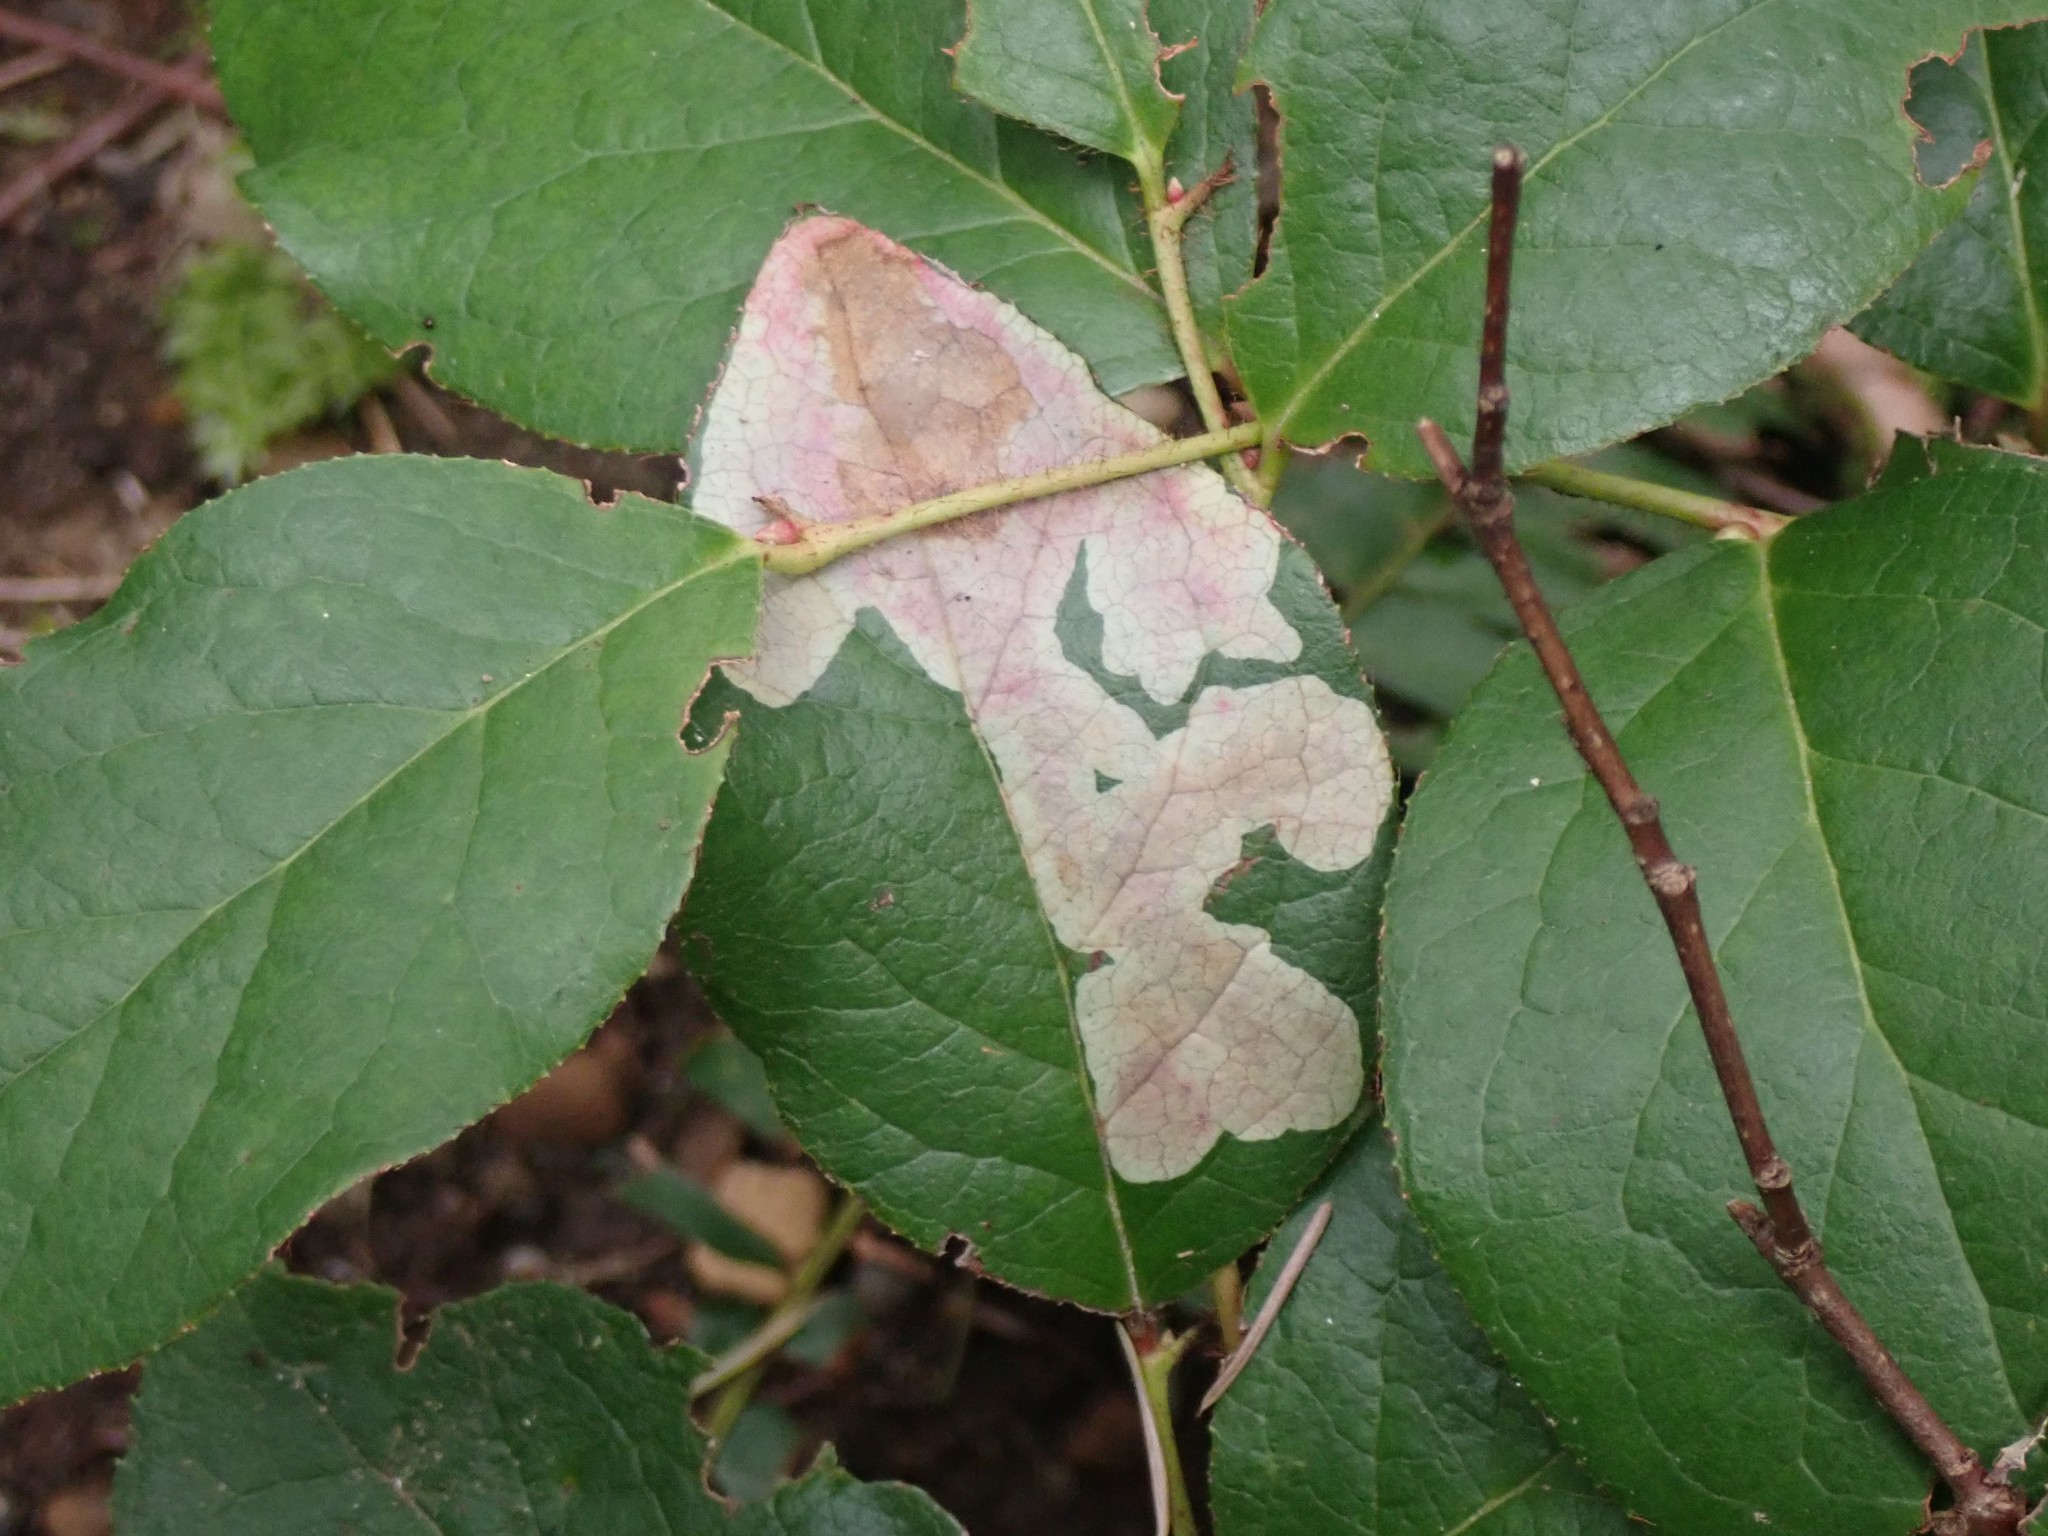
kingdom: Animalia
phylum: Arthropoda
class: Insecta
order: Lepidoptera
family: Gracillariidae
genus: Cameraria
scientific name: Cameraria gaultheriella
